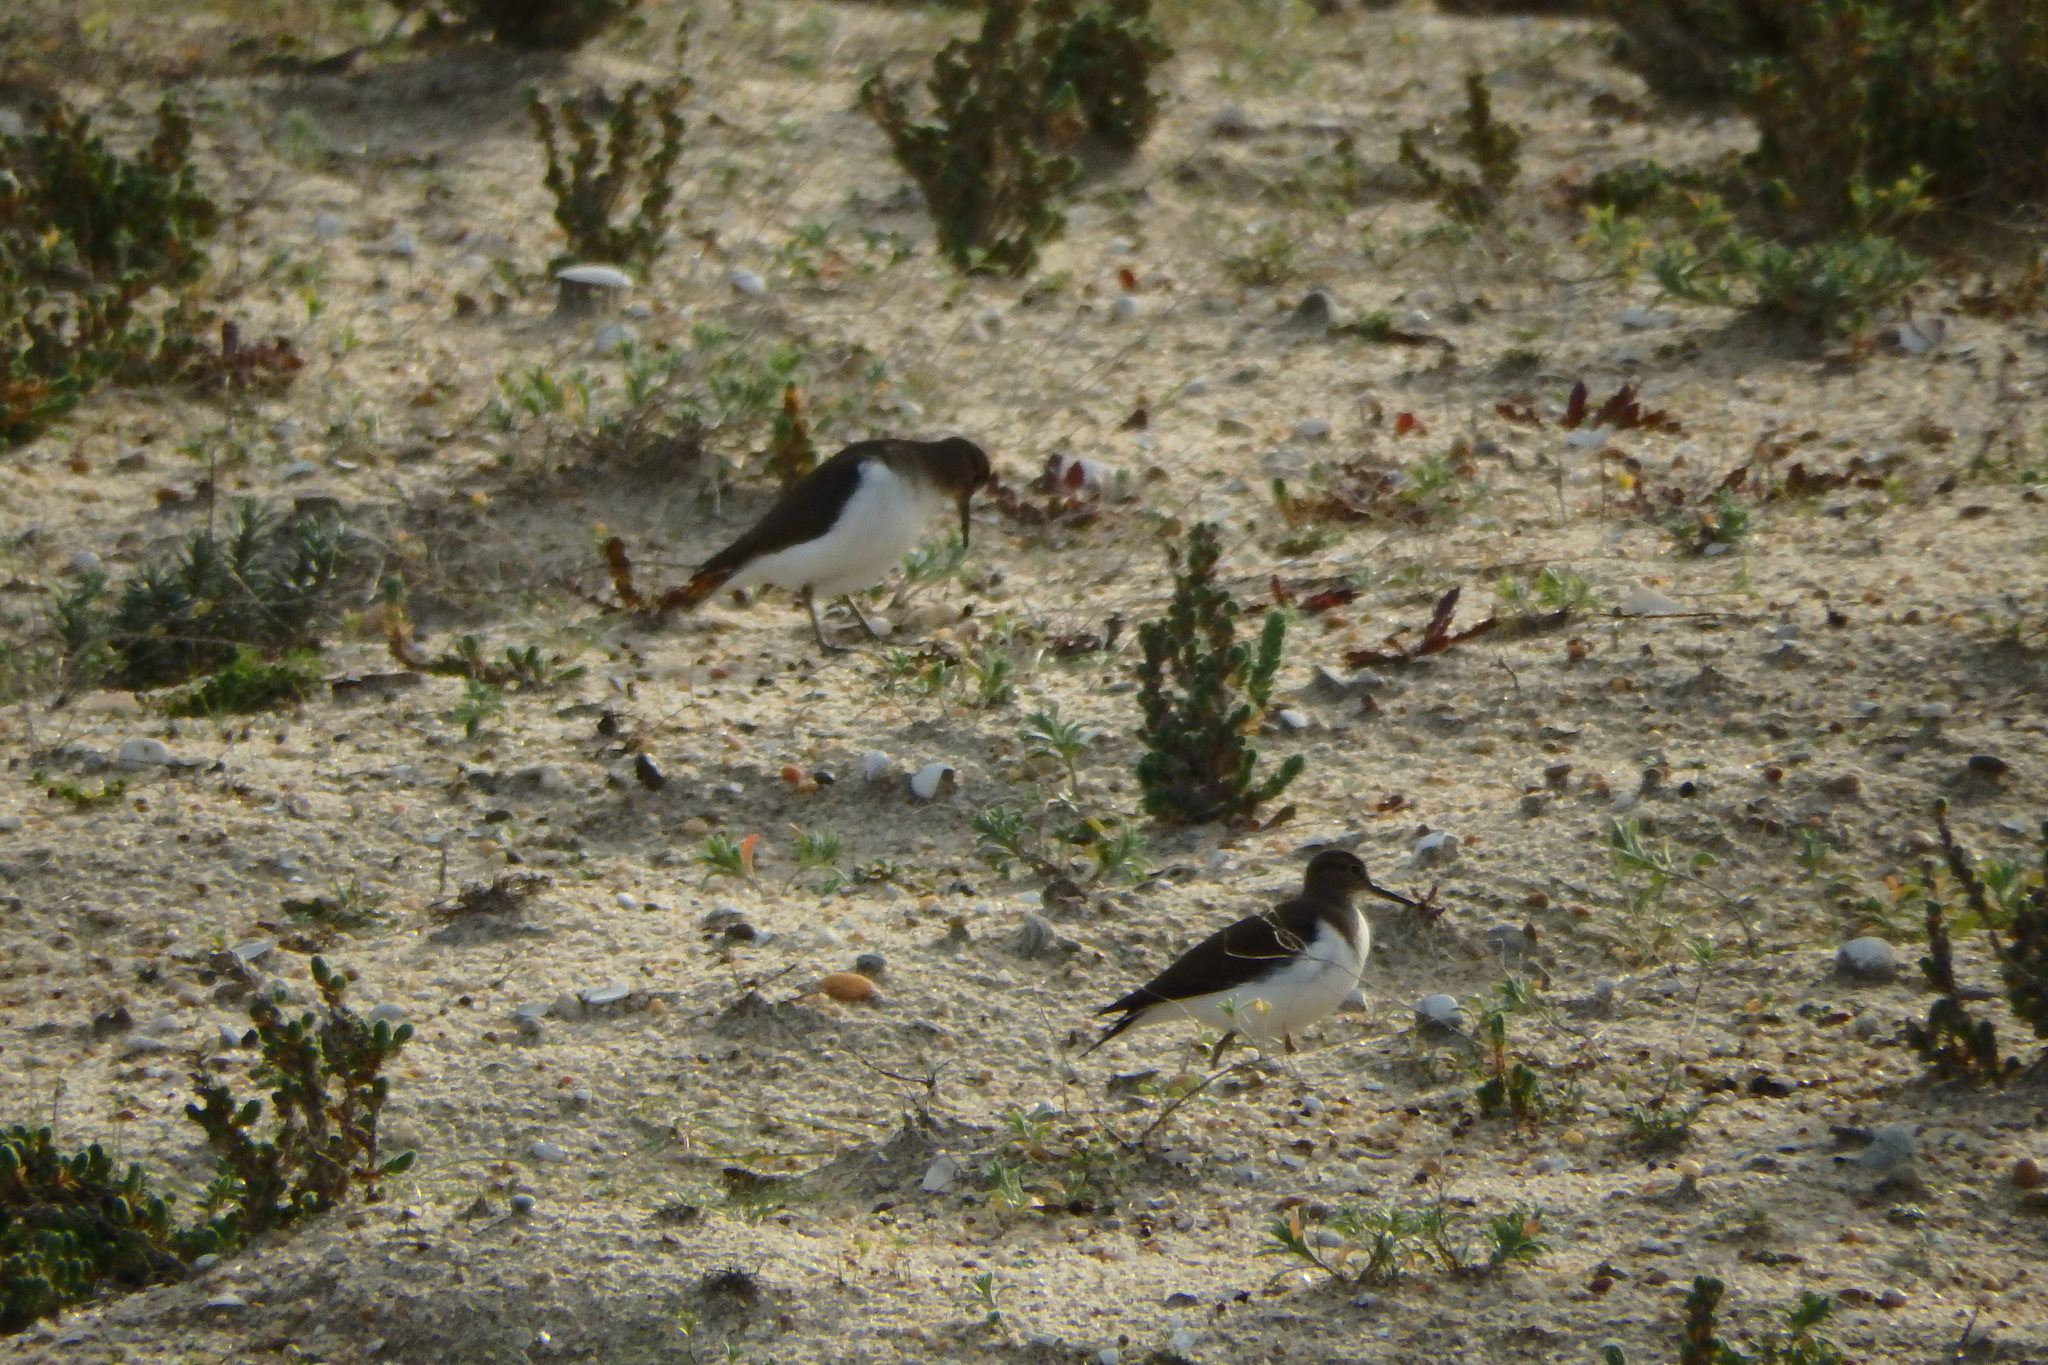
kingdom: Animalia
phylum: Chordata
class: Aves
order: Charadriiformes
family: Scolopacidae
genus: Actitis
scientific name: Actitis hypoleucos
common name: Common sandpiper
